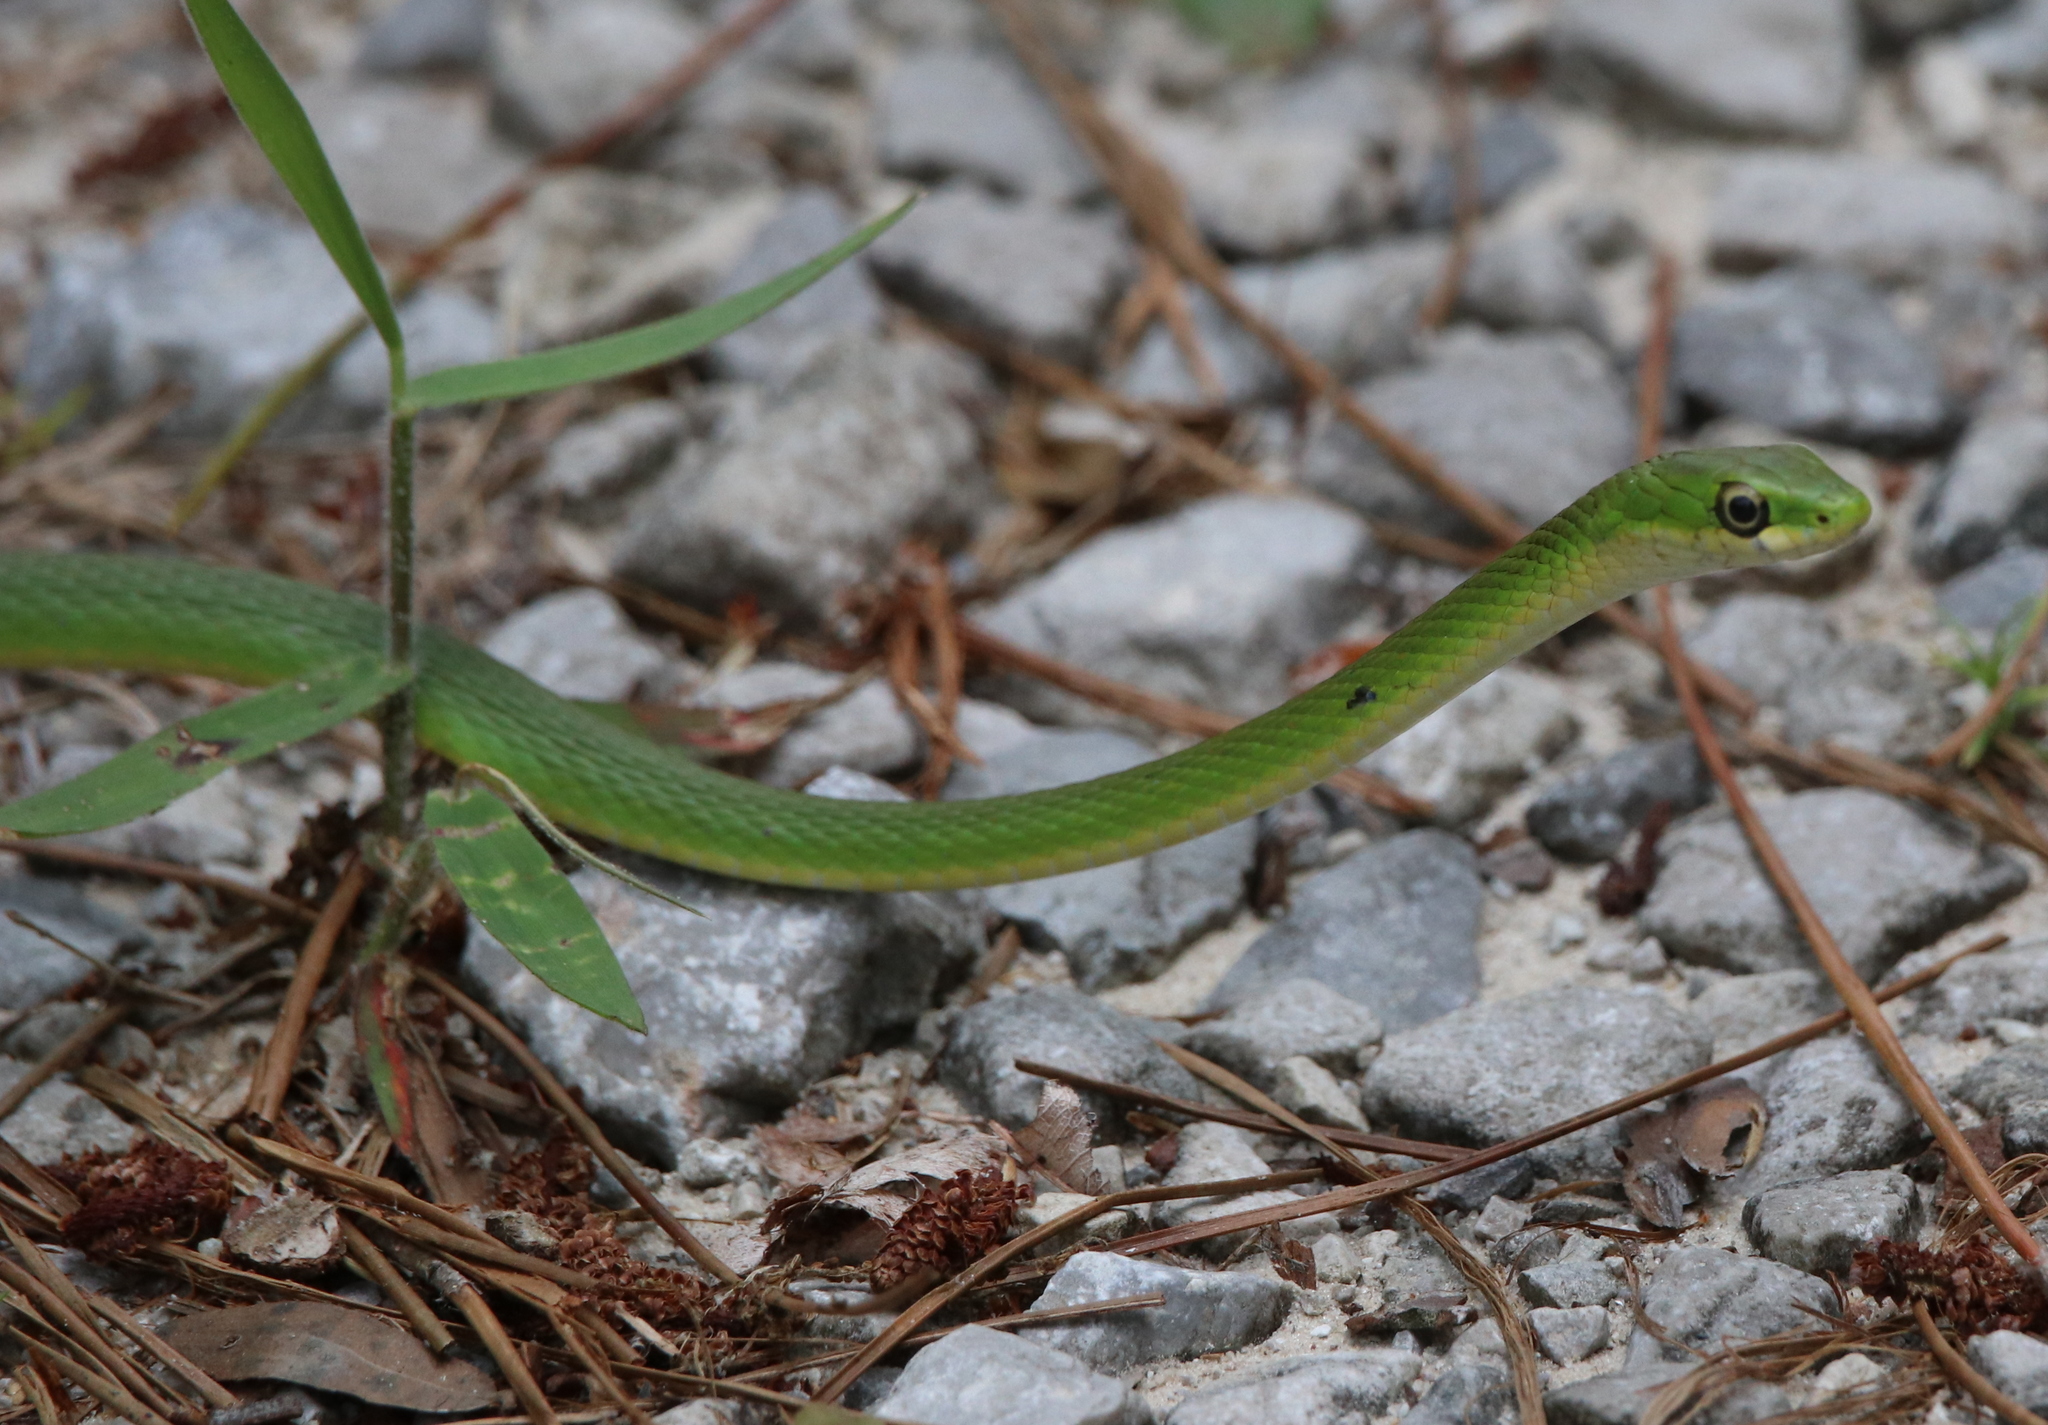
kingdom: Animalia
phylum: Chordata
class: Squamata
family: Colubridae
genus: Opheodrys
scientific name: Opheodrys aestivus
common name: Rough greensnake
